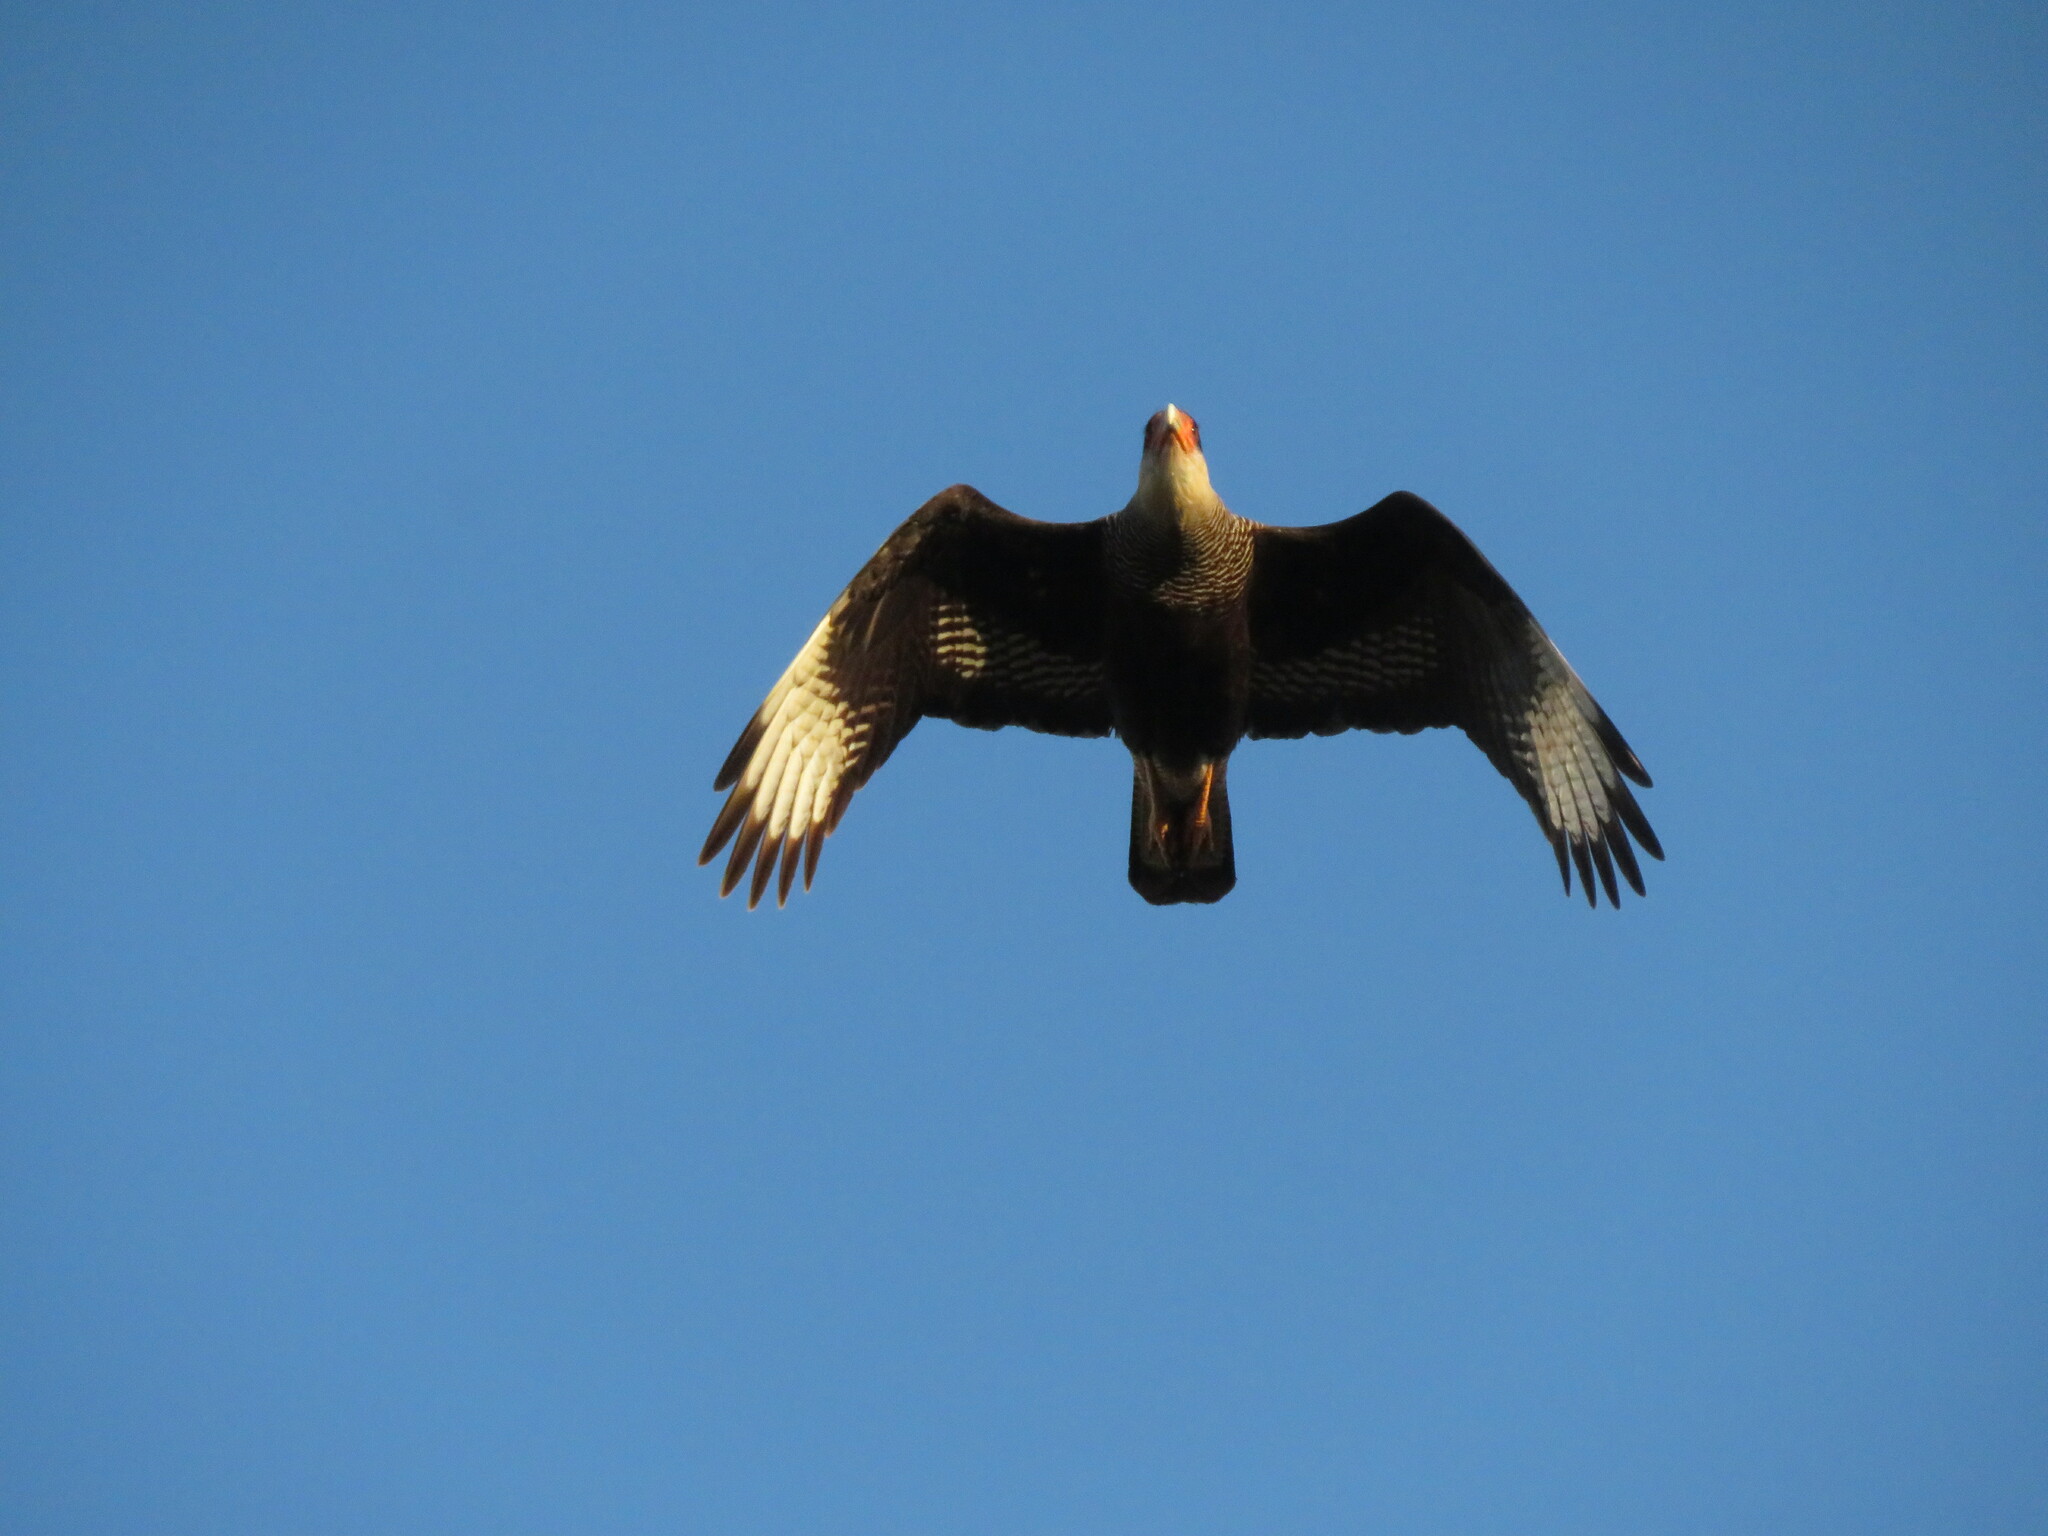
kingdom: Animalia
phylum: Chordata
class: Aves
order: Falconiformes
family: Falconidae
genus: Caracara
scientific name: Caracara plancus
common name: Southern caracara
